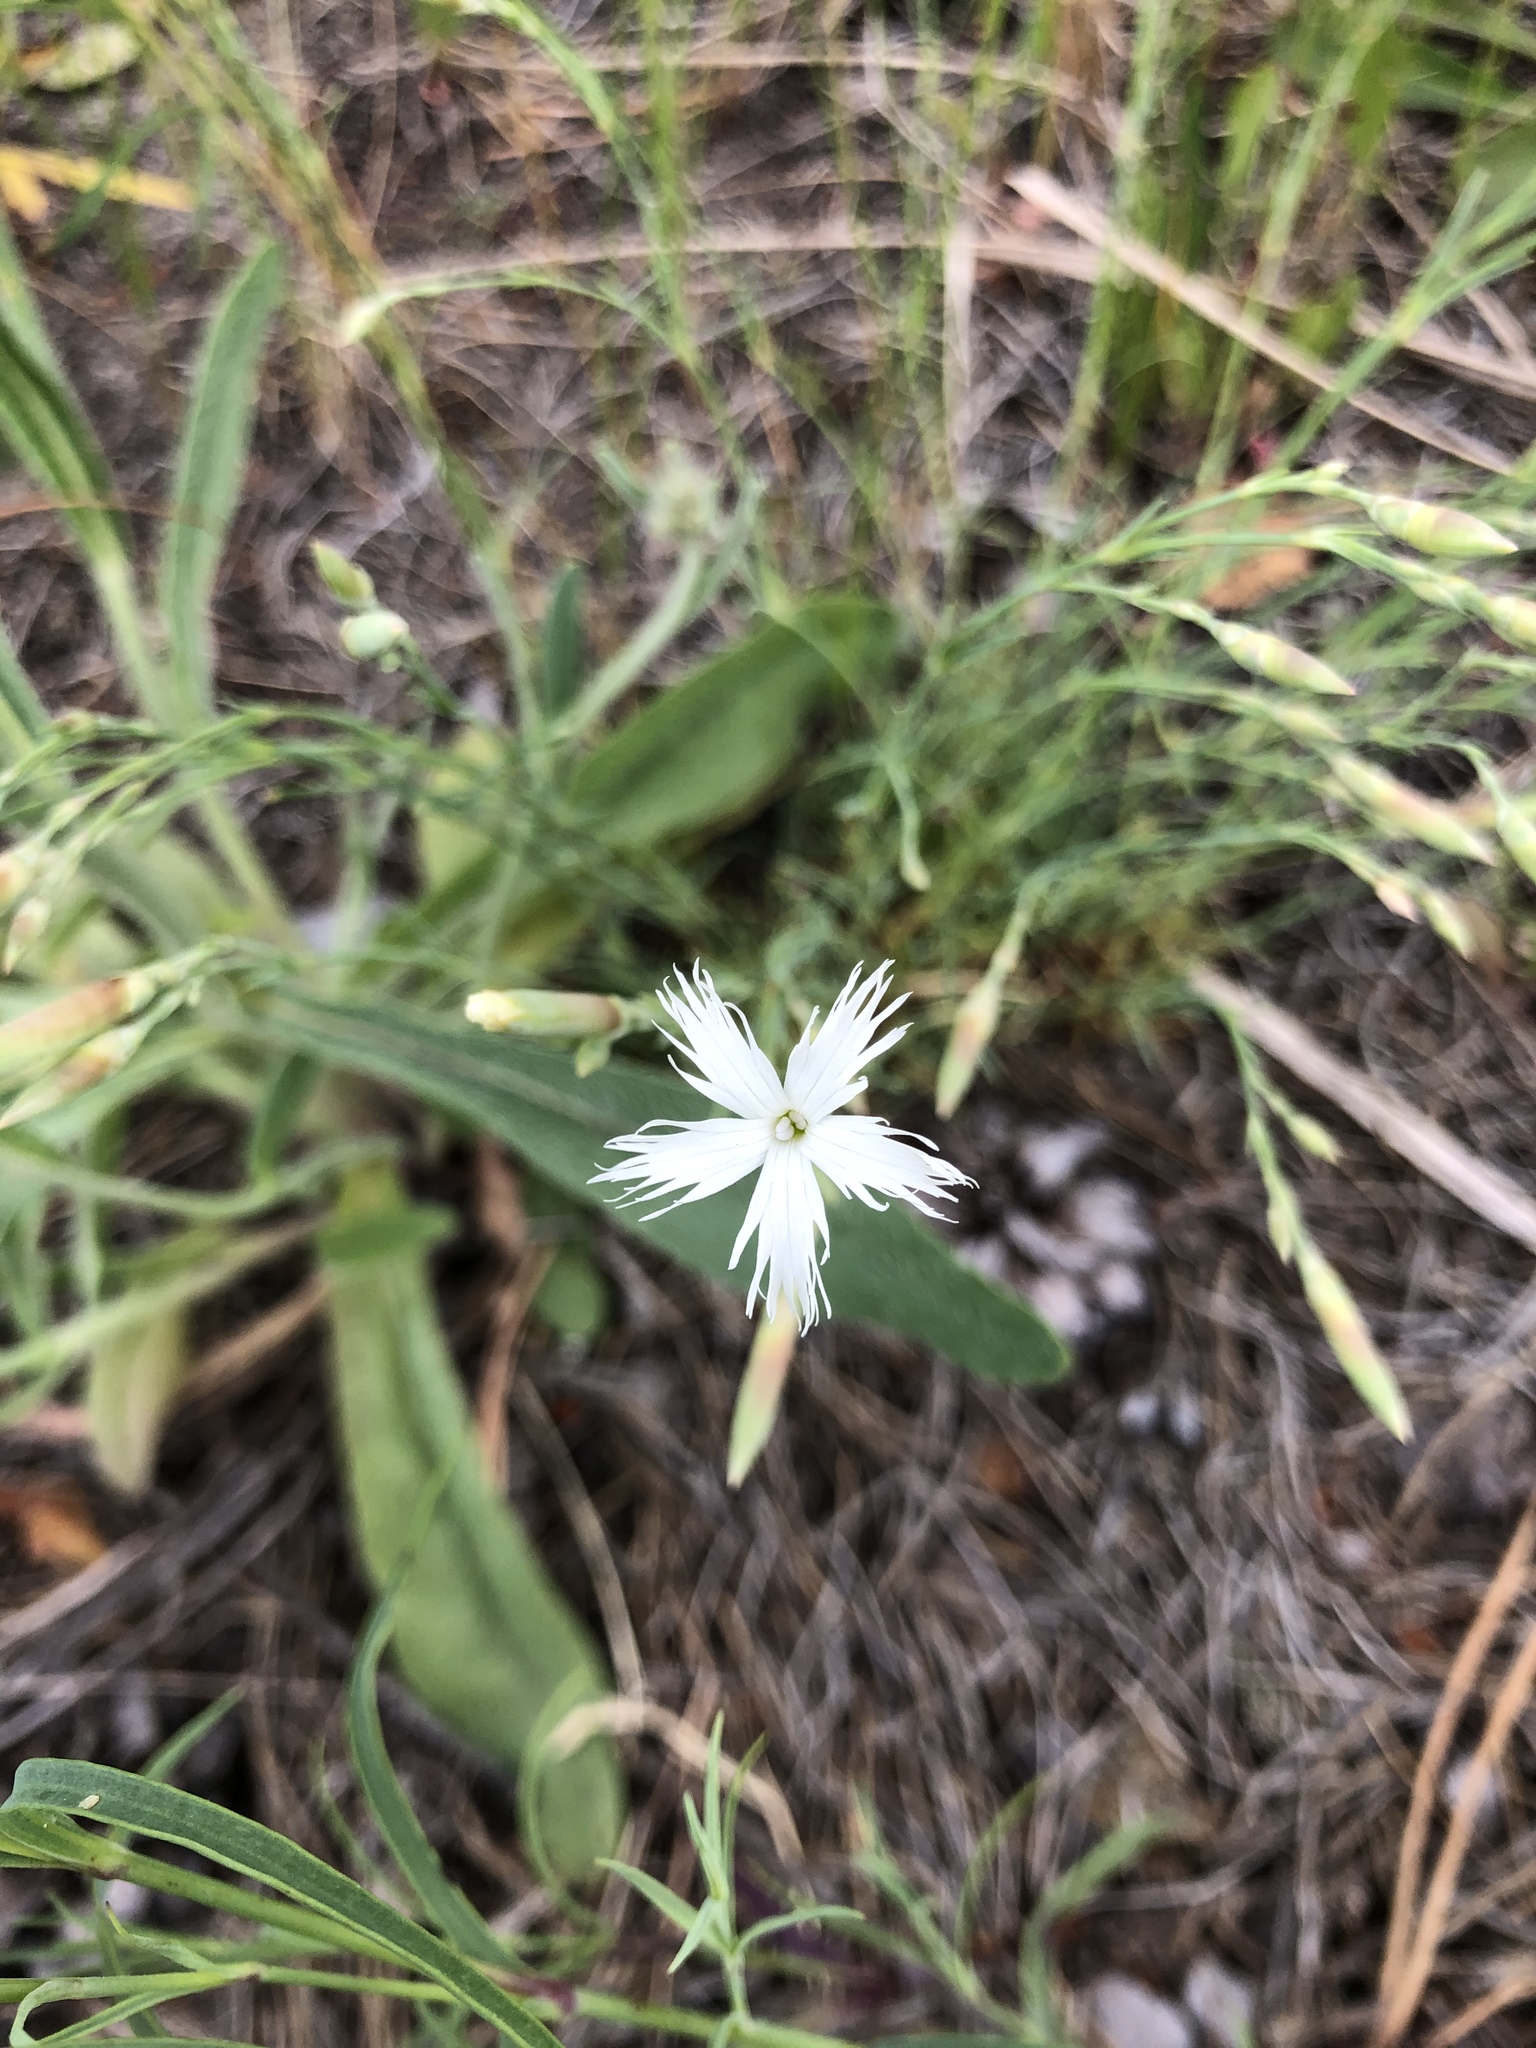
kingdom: Plantae
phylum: Tracheophyta
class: Magnoliopsida
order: Caryophyllales
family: Caryophyllaceae
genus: Dianthus
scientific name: Dianthus arenarius
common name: Stone pink
